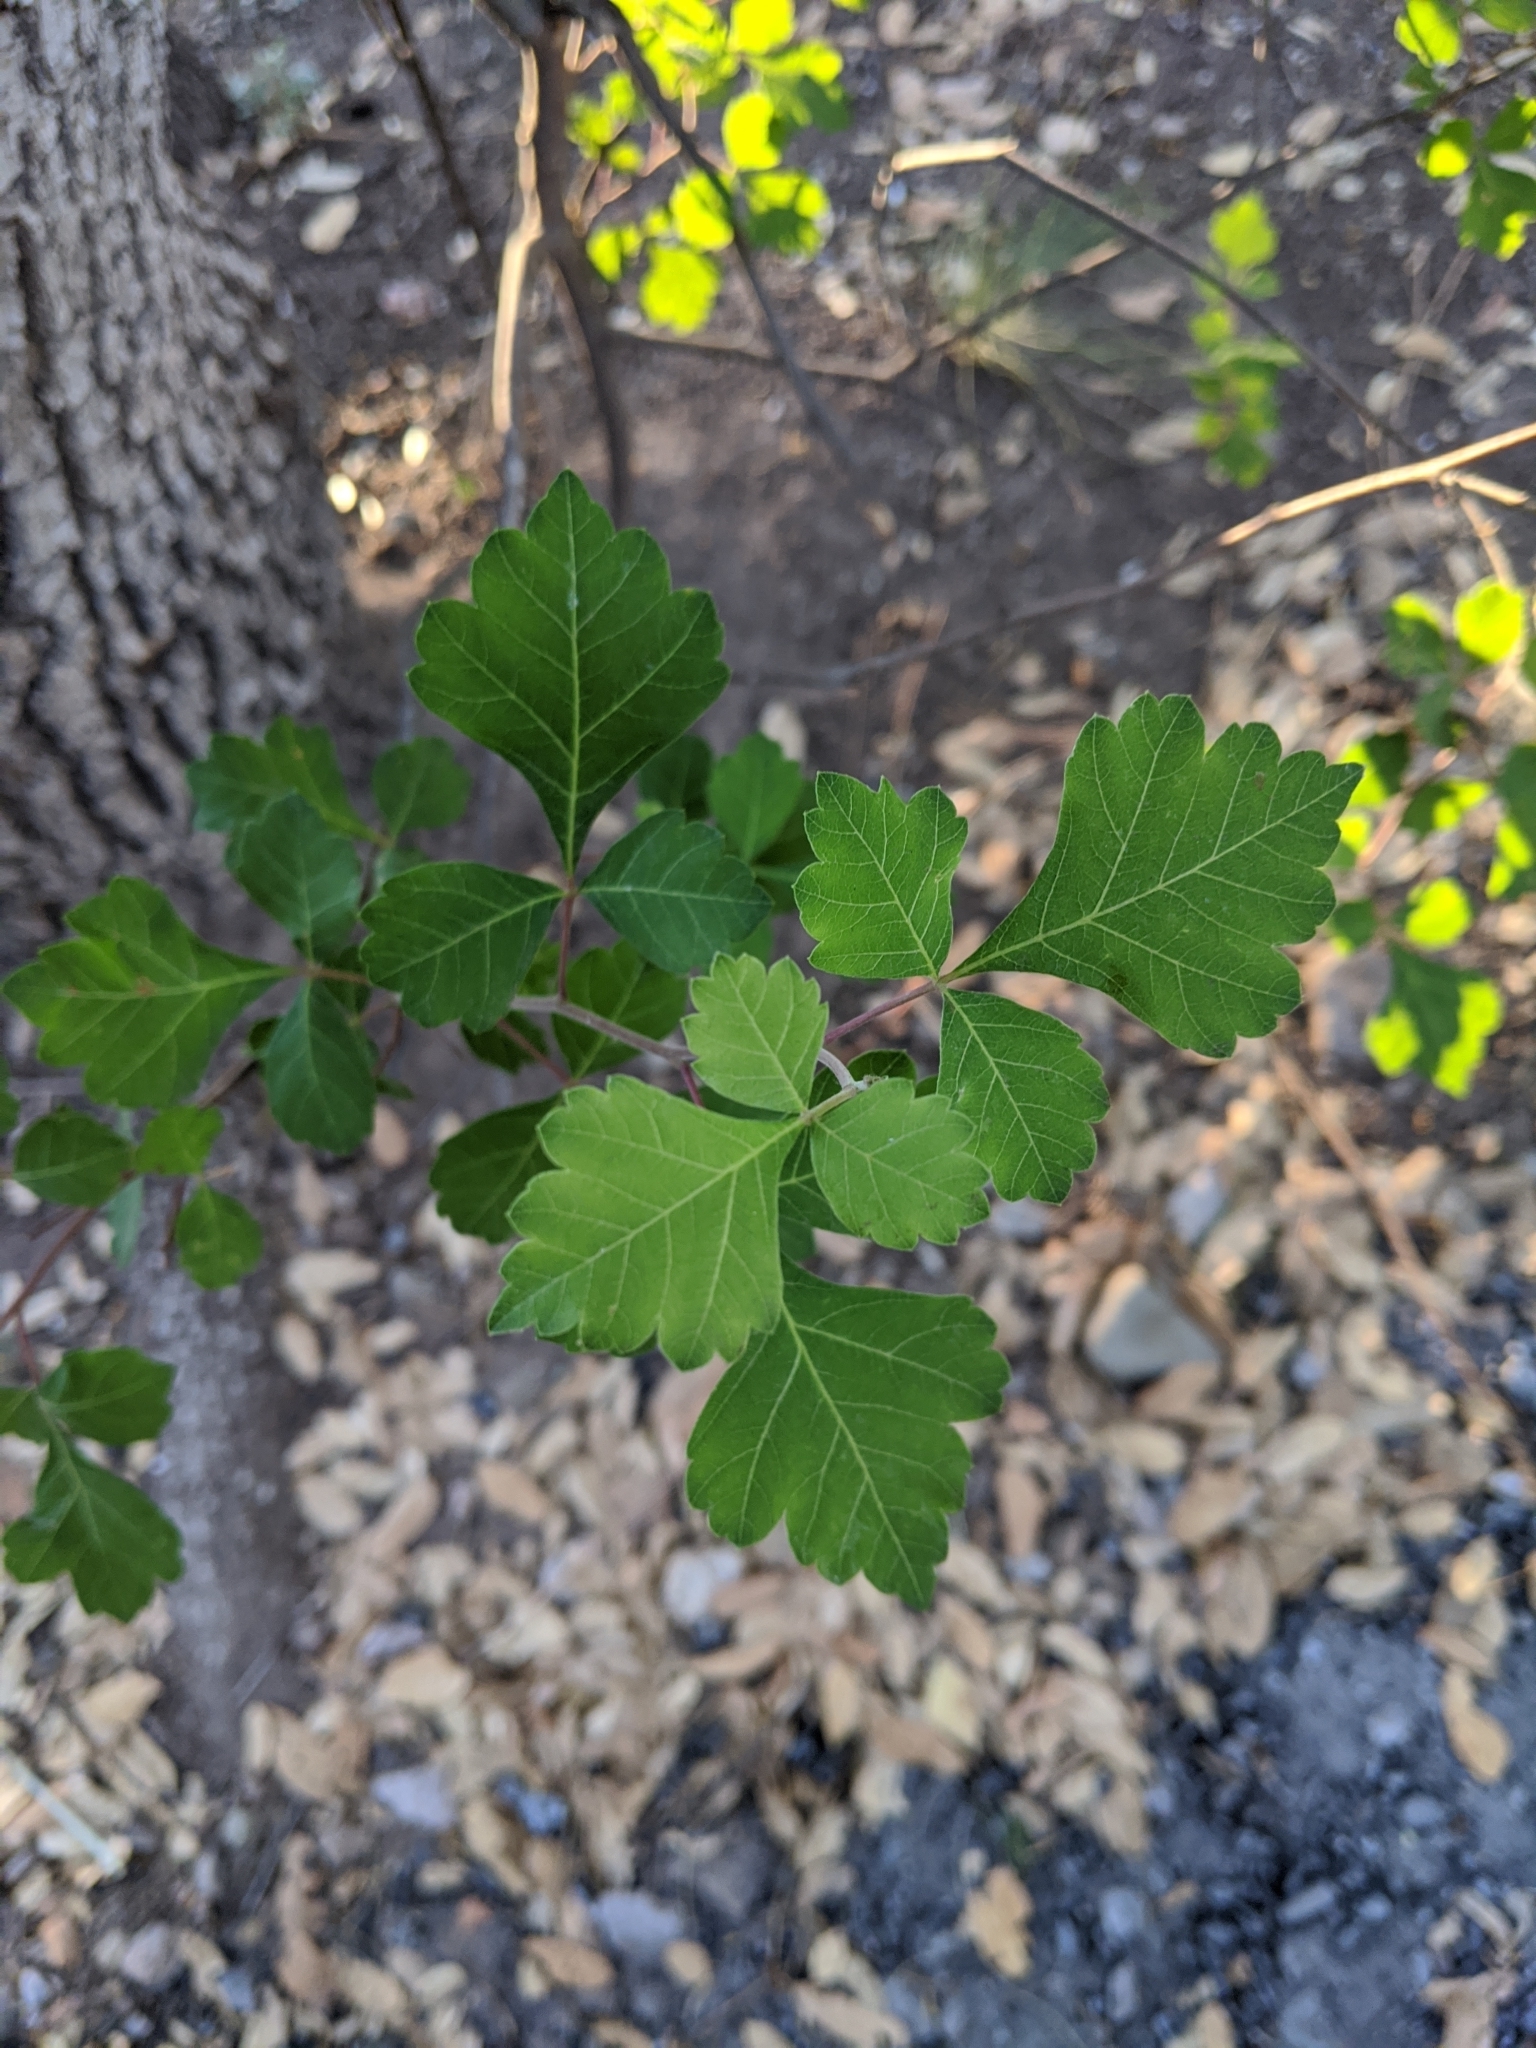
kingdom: Plantae
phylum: Tracheophyta
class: Magnoliopsida
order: Fagales
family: Fagaceae
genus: Quercus
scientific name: Quercus arizonica
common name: Arizona white oak
